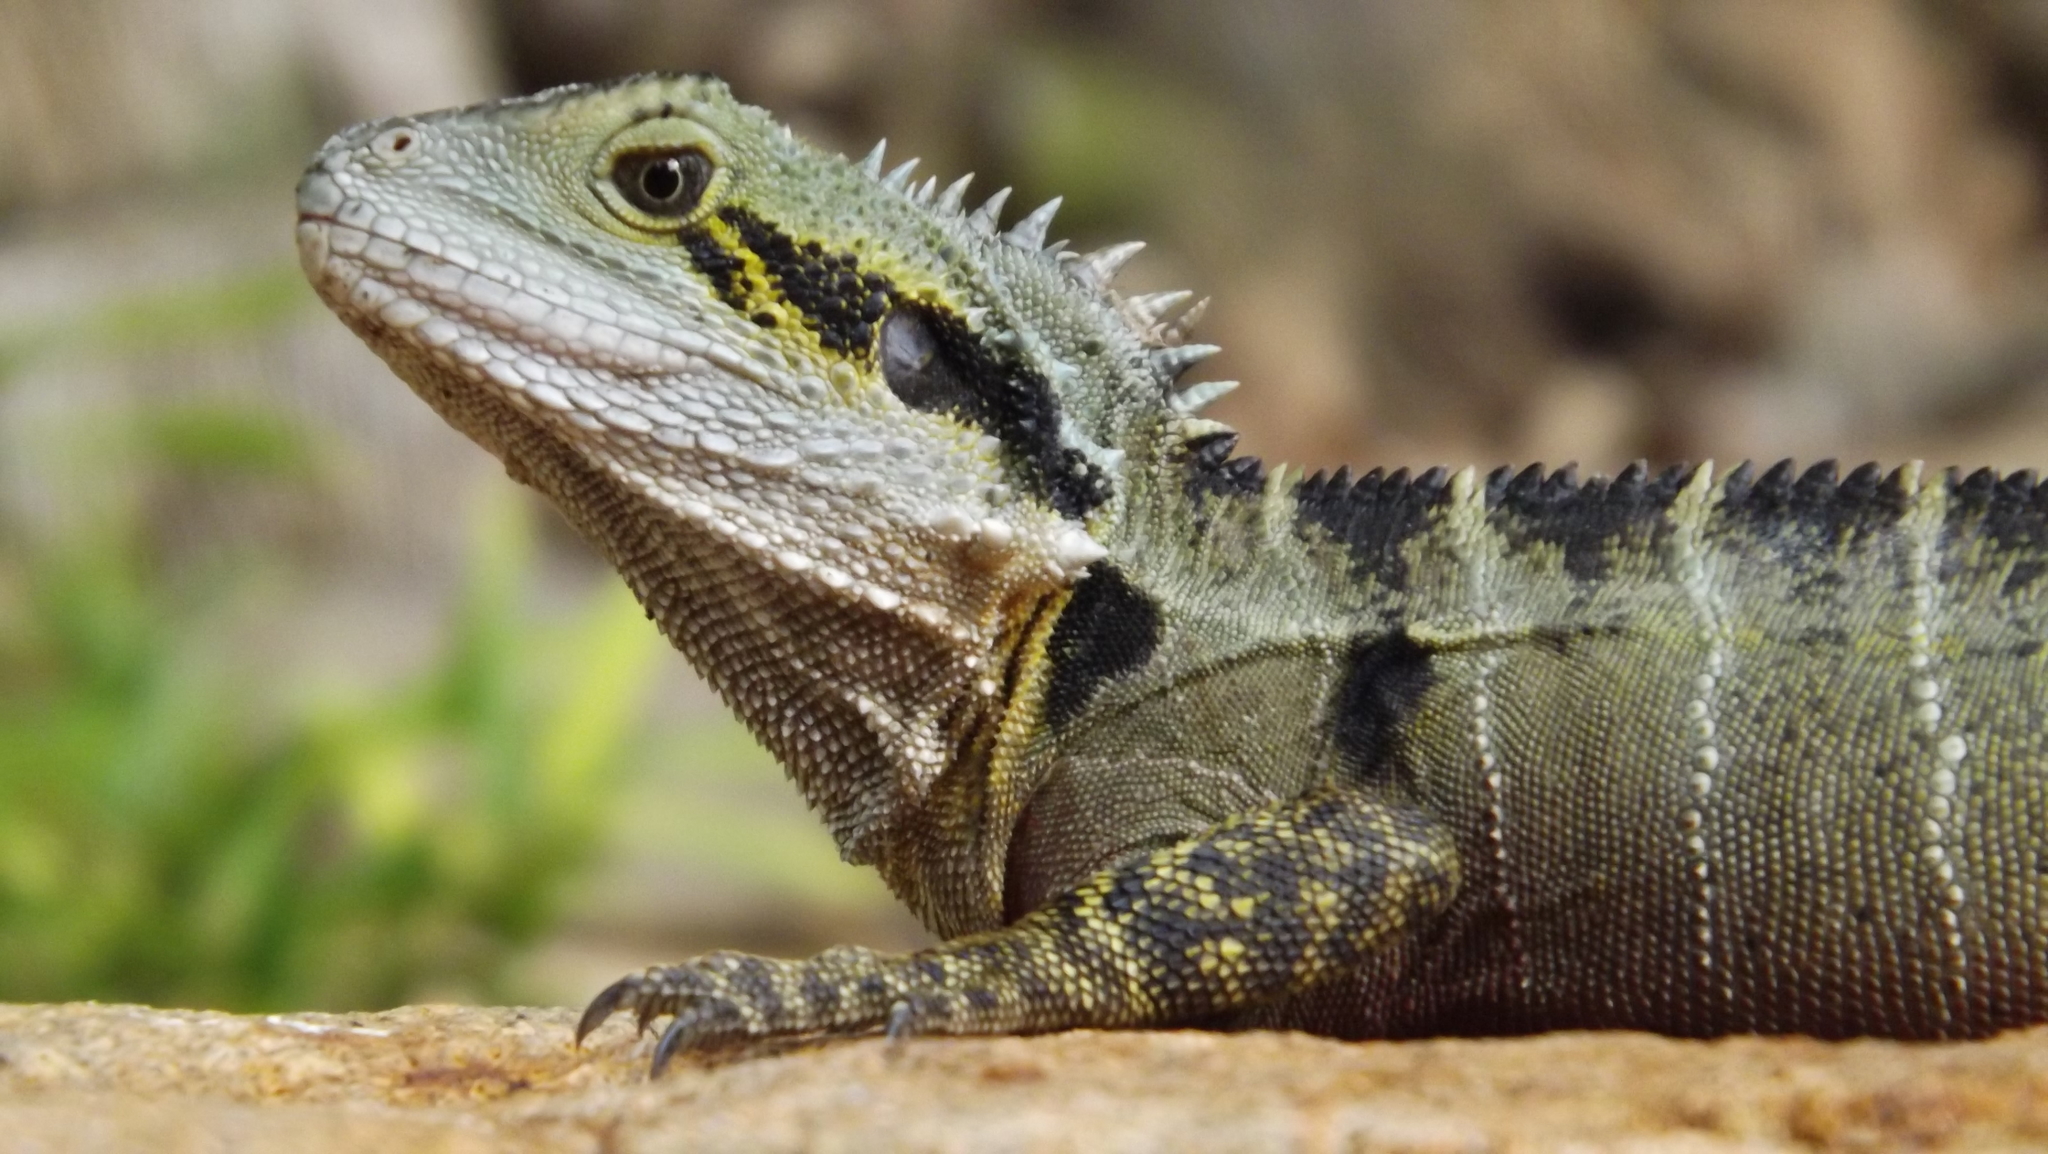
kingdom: Animalia
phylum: Chordata
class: Squamata
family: Agamidae
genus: Intellagama
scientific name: Intellagama lesueurii
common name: Eastern water dragon
